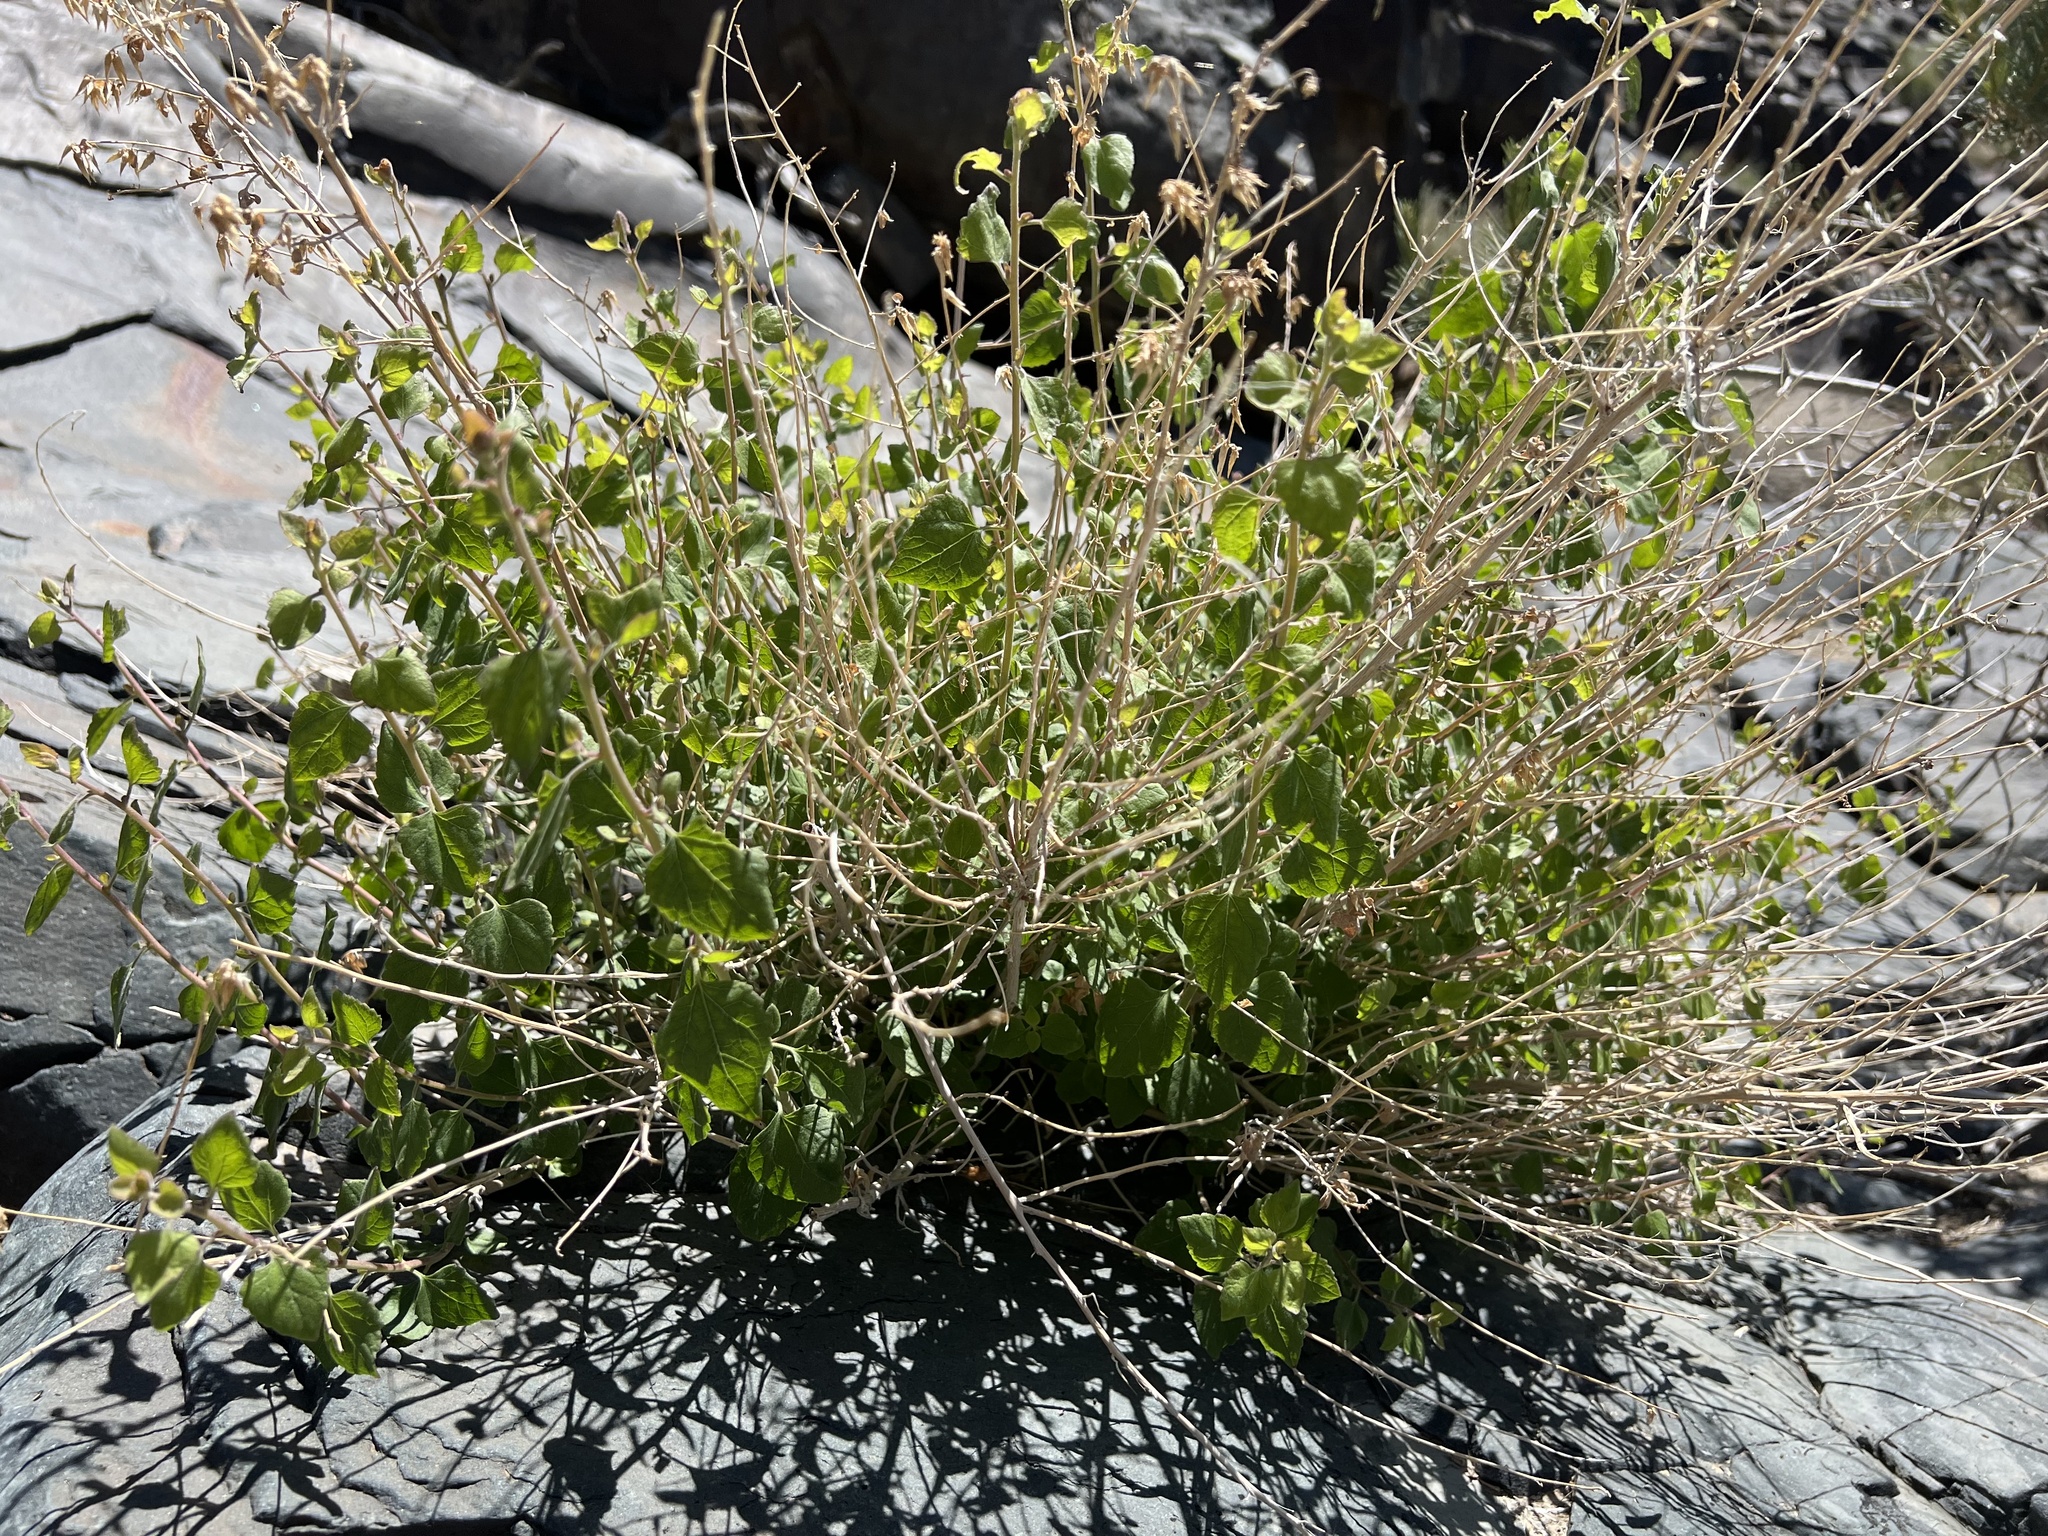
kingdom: Plantae
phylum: Tracheophyta
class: Magnoliopsida
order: Asterales
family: Asteraceae
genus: Brickellia
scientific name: Brickellia californica
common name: California brickellbush
